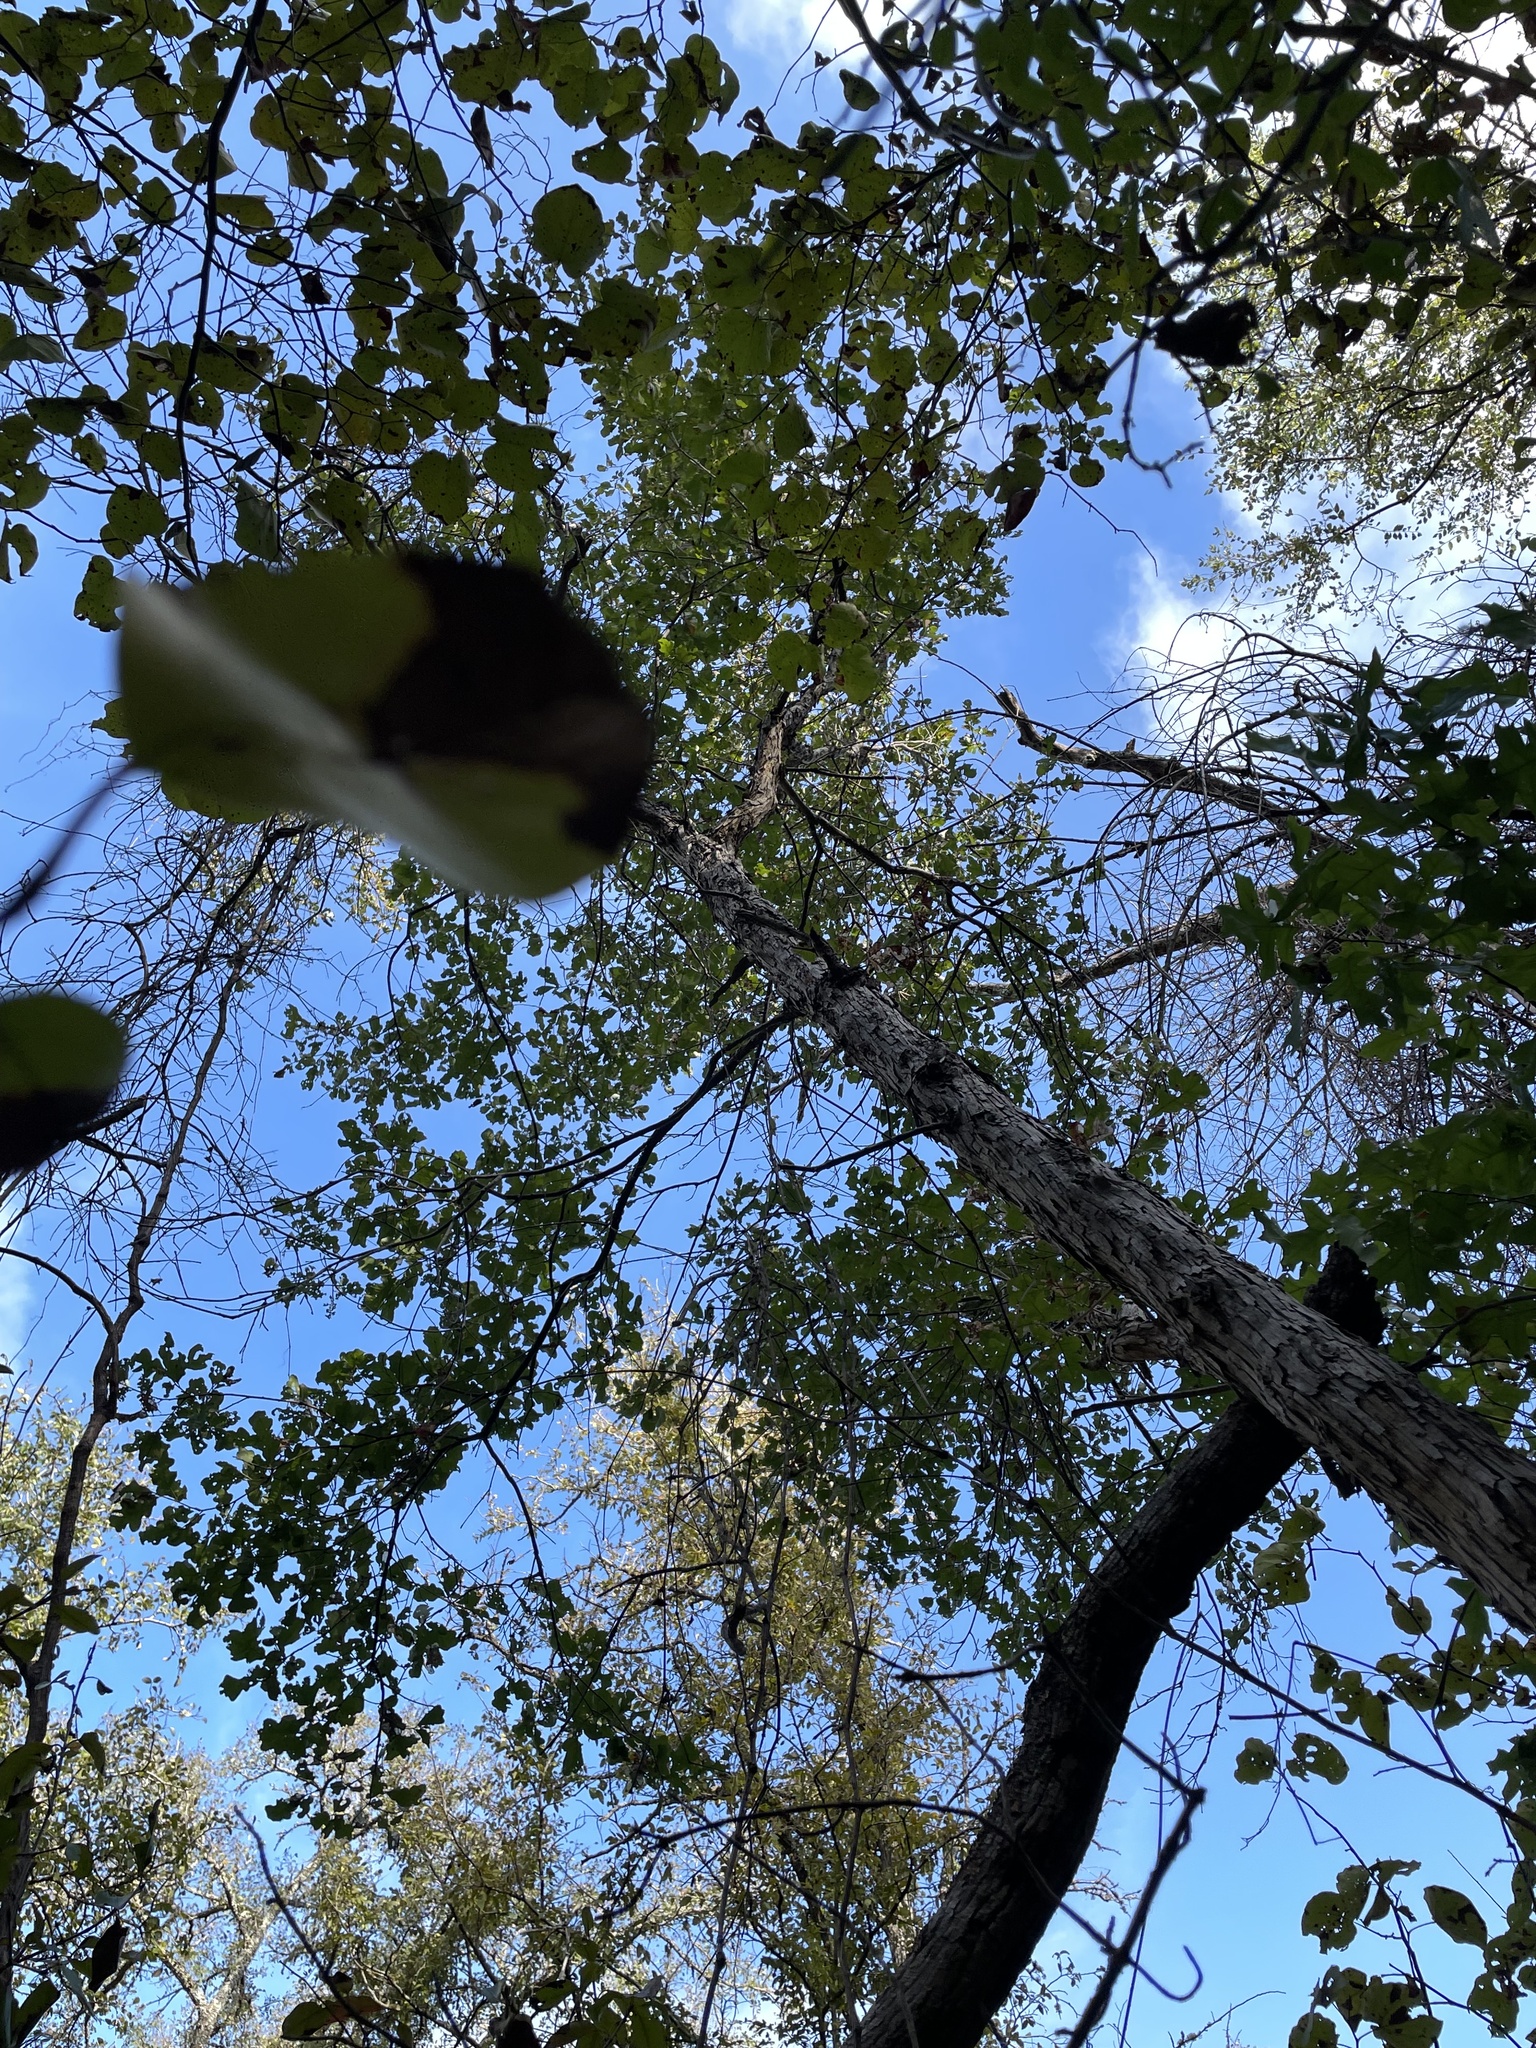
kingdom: Plantae
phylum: Tracheophyta
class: Magnoliopsida
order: Fagales
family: Fagaceae
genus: Quercus
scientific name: Quercus sinuata
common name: Durand oak
